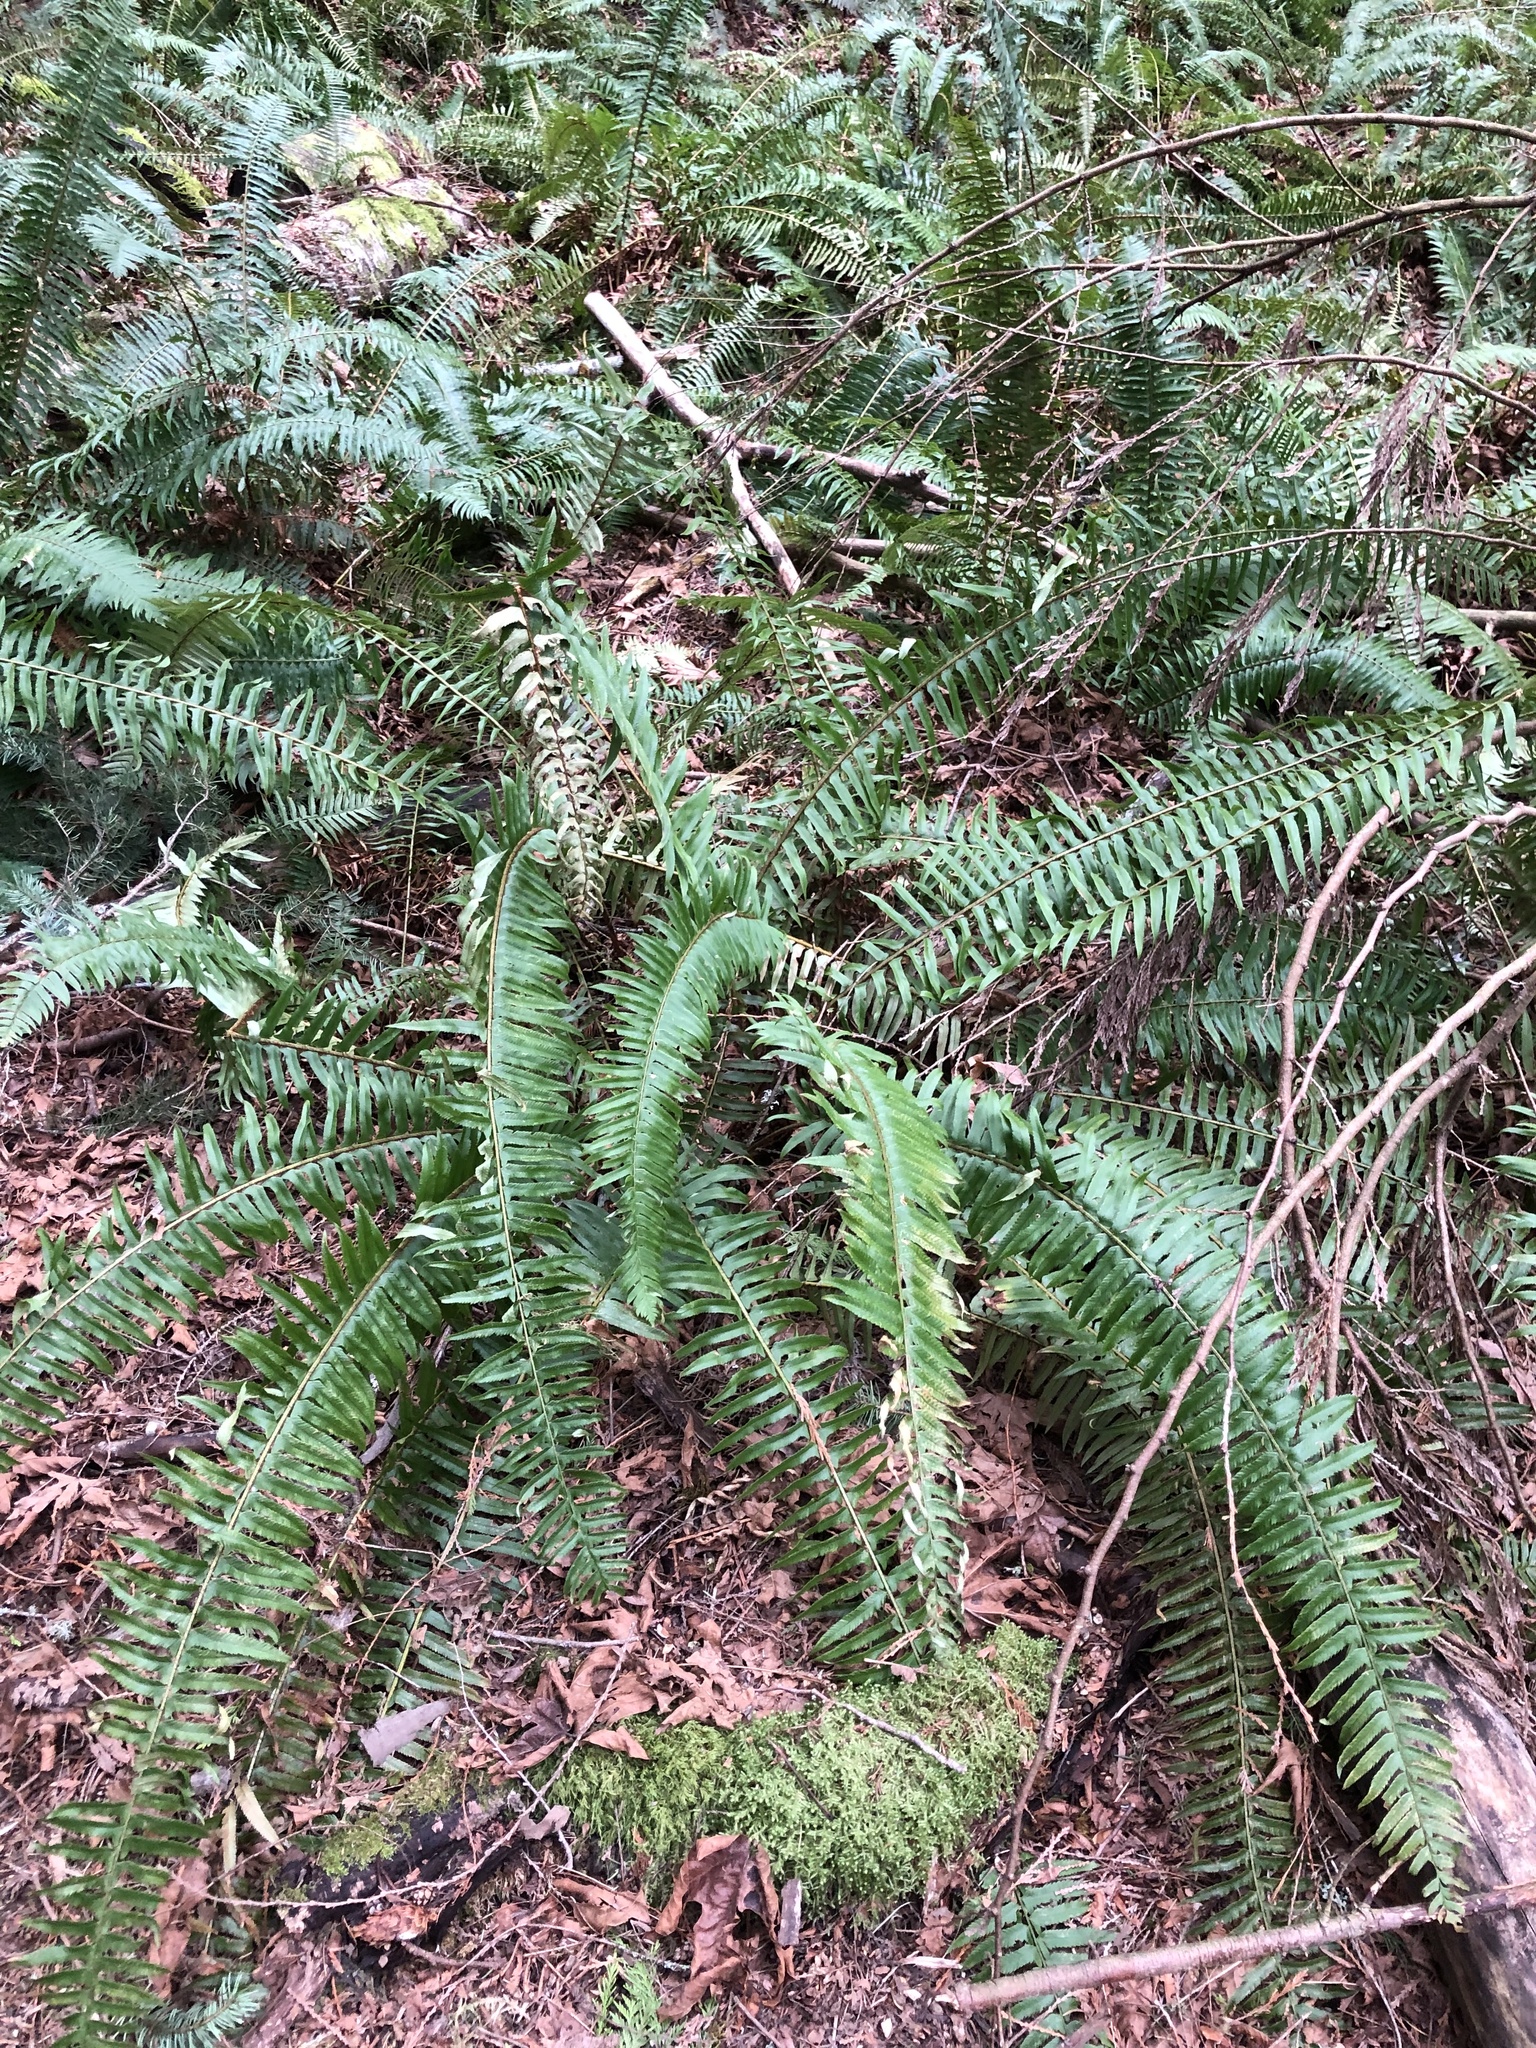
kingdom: Plantae
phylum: Tracheophyta
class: Polypodiopsida
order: Polypodiales
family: Dryopteridaceae
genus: Polystichum
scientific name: Polystichum munitum
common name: Western sword-fern
